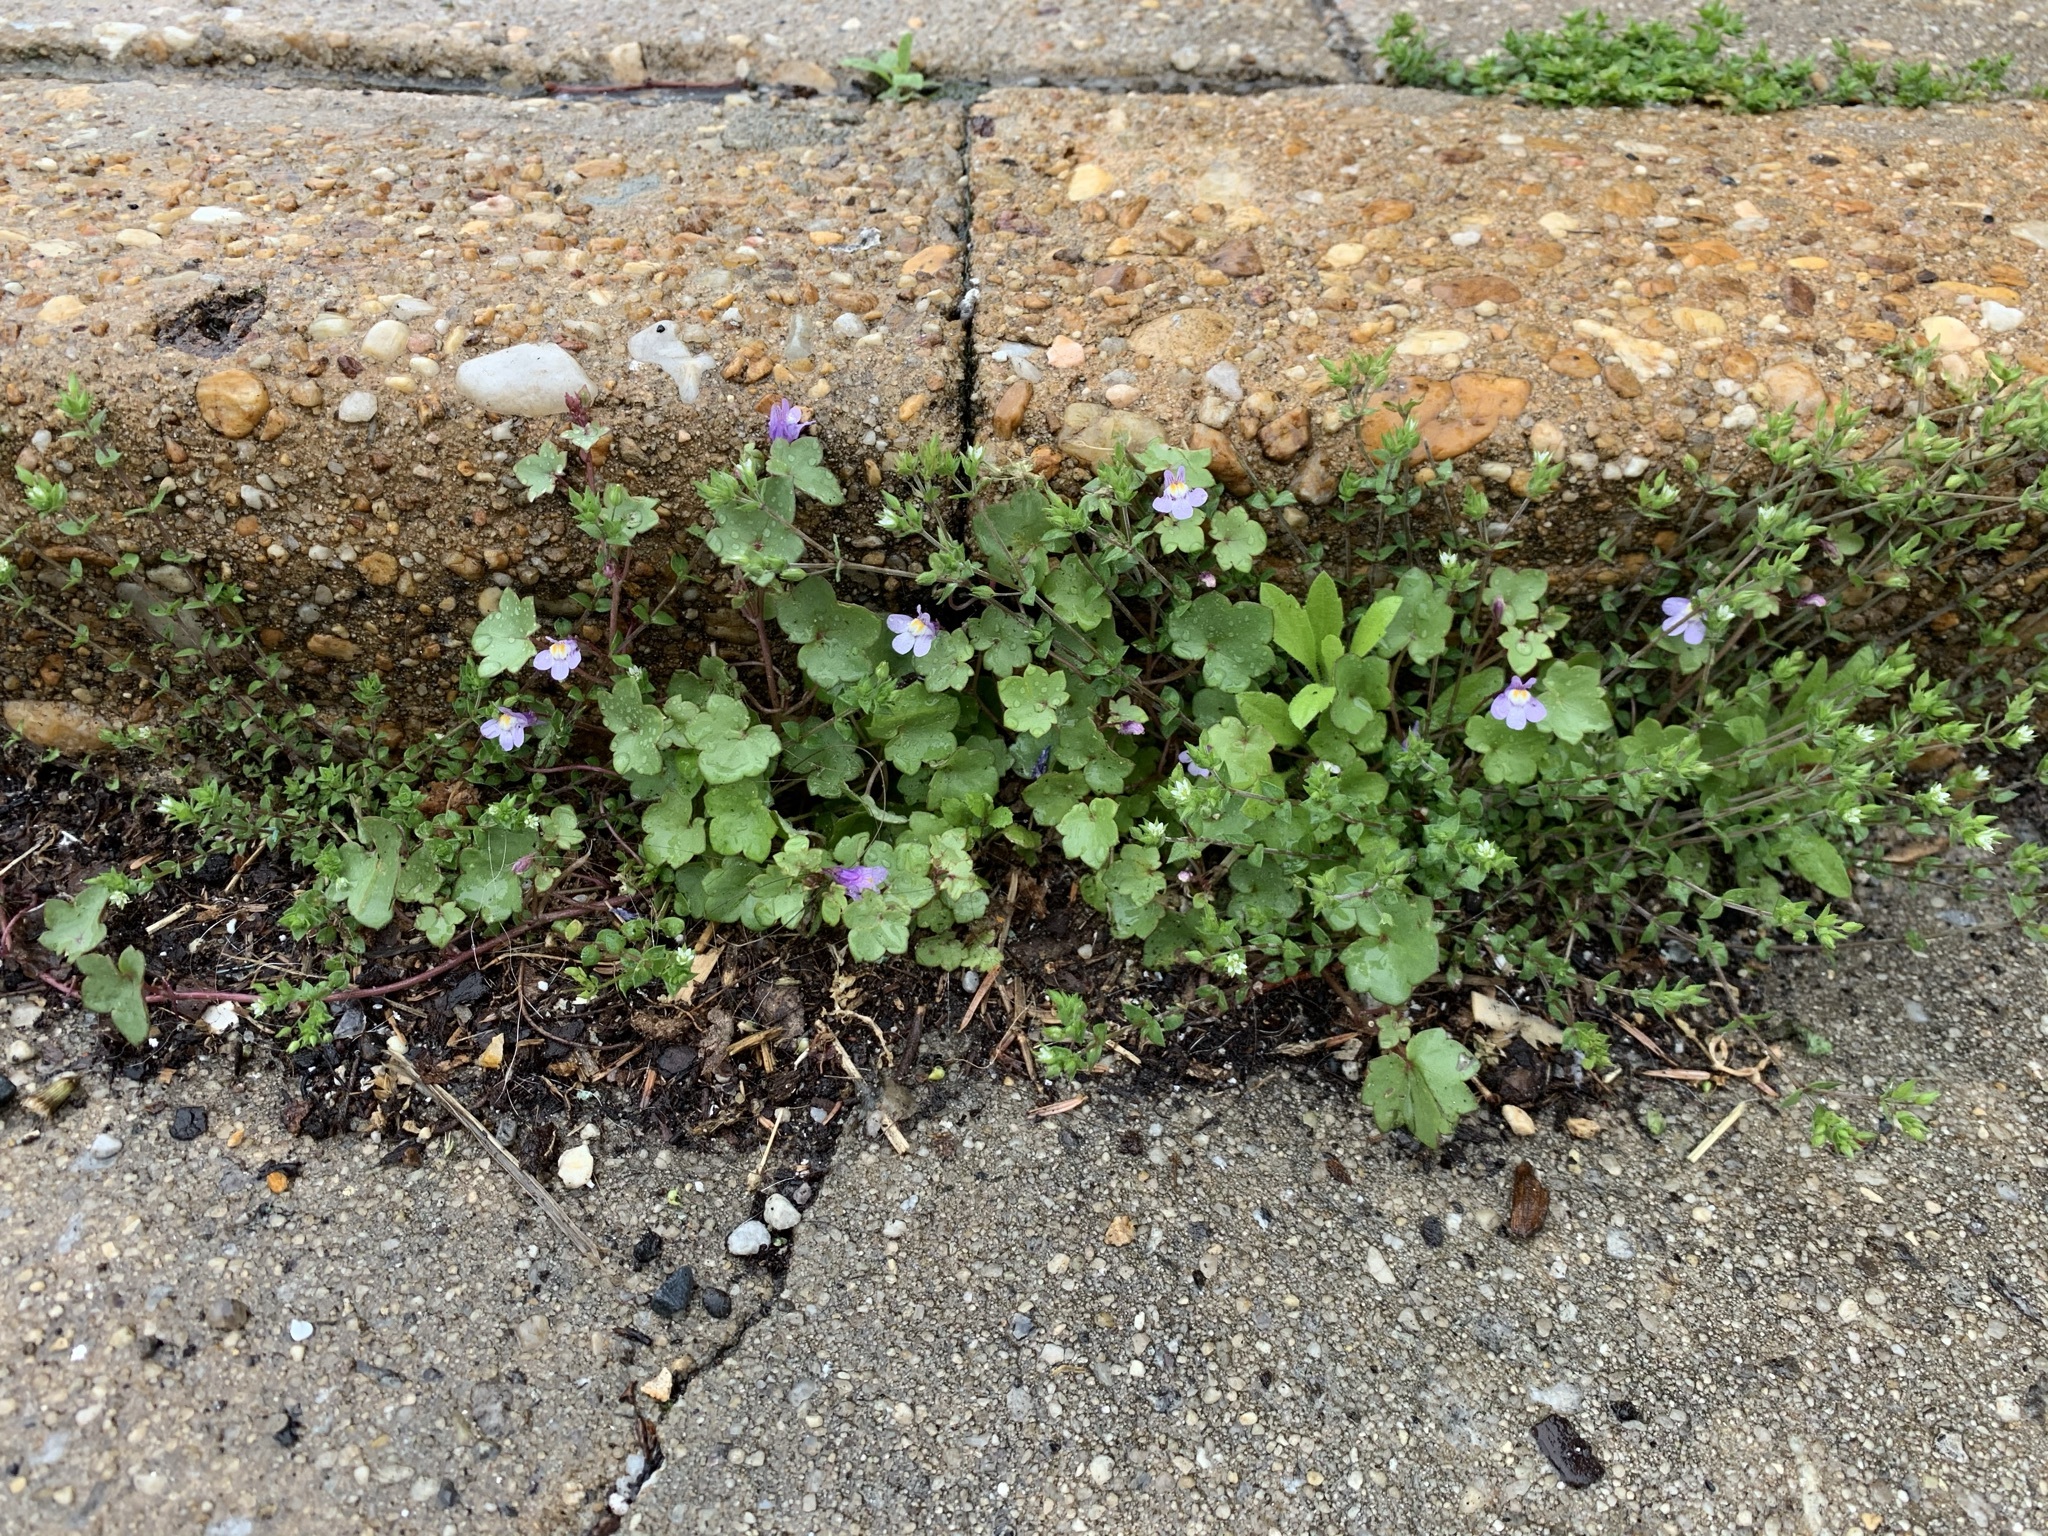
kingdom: Plantae
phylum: Tracheophyta
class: Magnoliopsida
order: Lamiales
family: Plantaginaceae
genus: Cymbalaria
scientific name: Cymbalaria muralis
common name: Ivy-leaved toadflax
